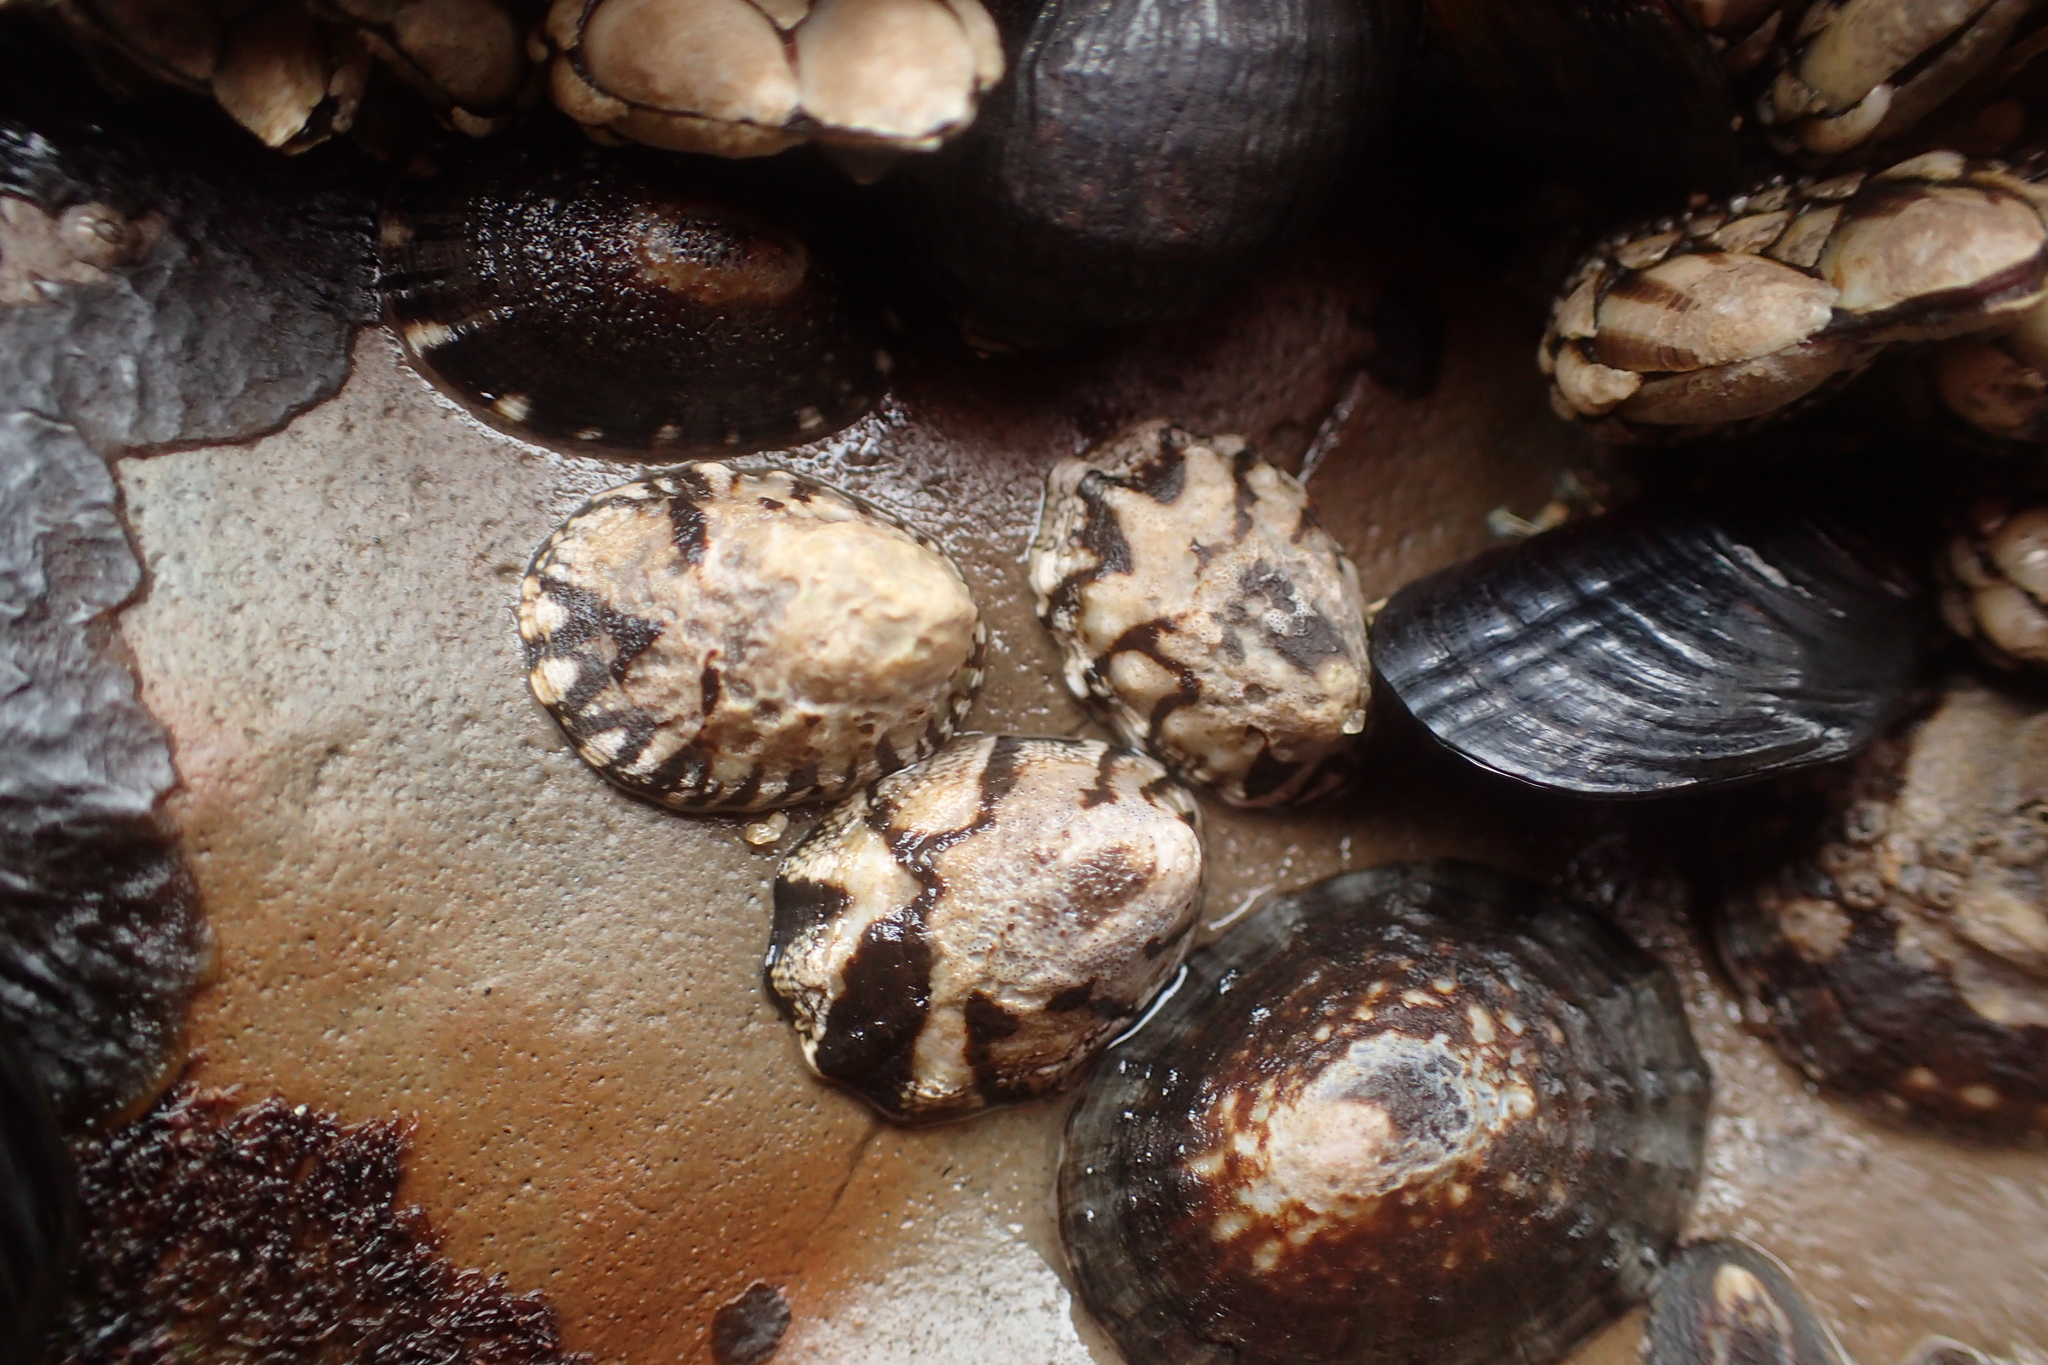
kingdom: Animalia
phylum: Mollusca
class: Gastropoda
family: Lottiidae
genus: Lottia
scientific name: Lottia digitalis
